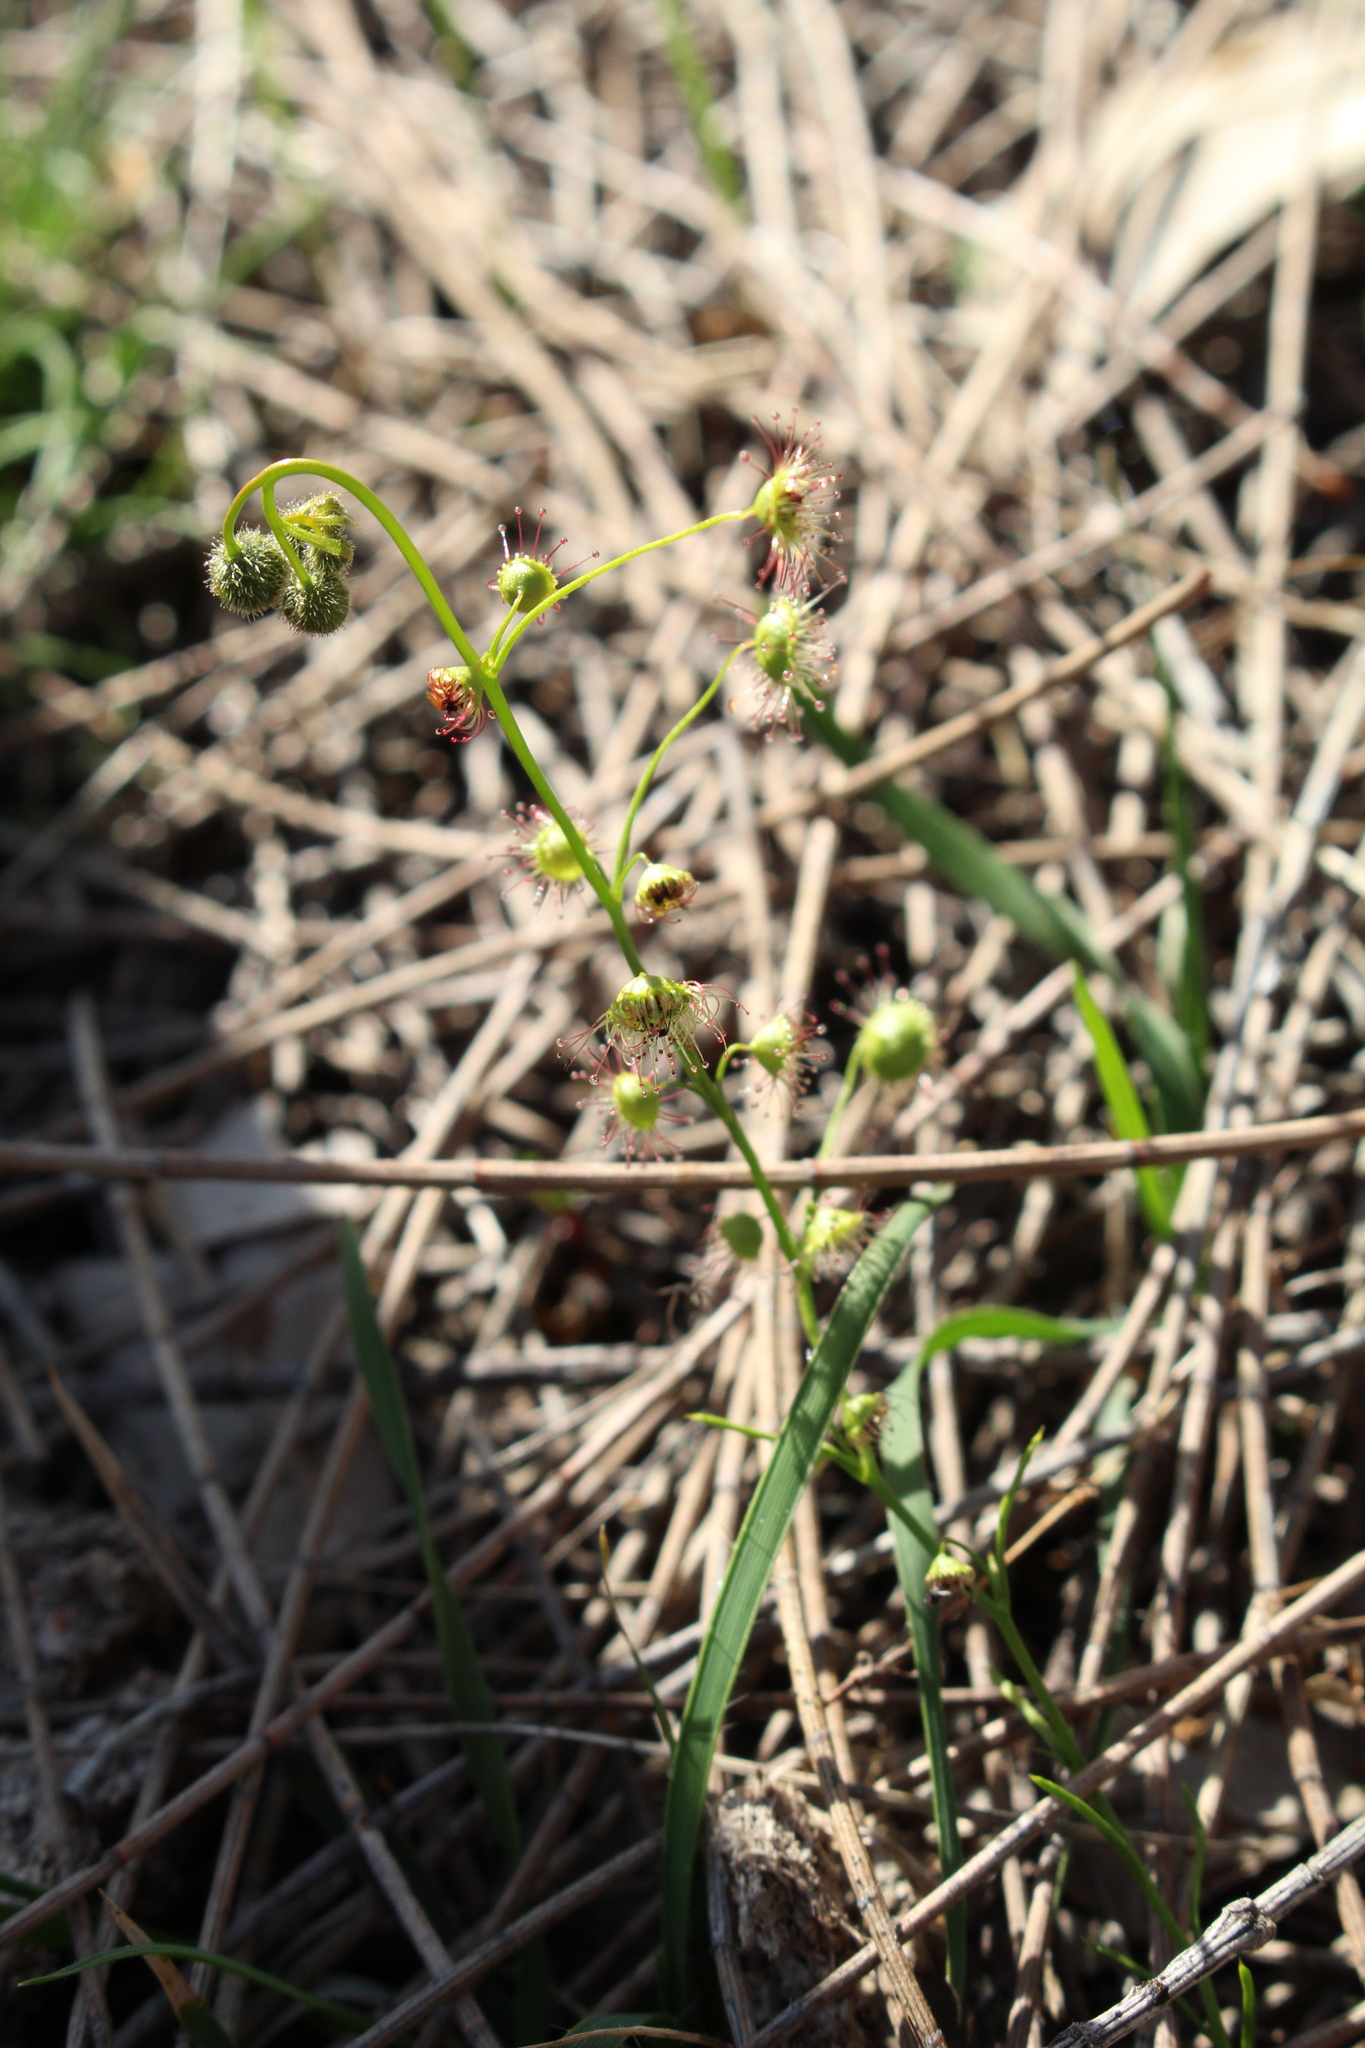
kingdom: Plantae
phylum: Tracheophyta
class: Magnoliopsida
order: Caryophyllales
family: Droseraceae
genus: Drosera
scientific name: Drosera menziesii
